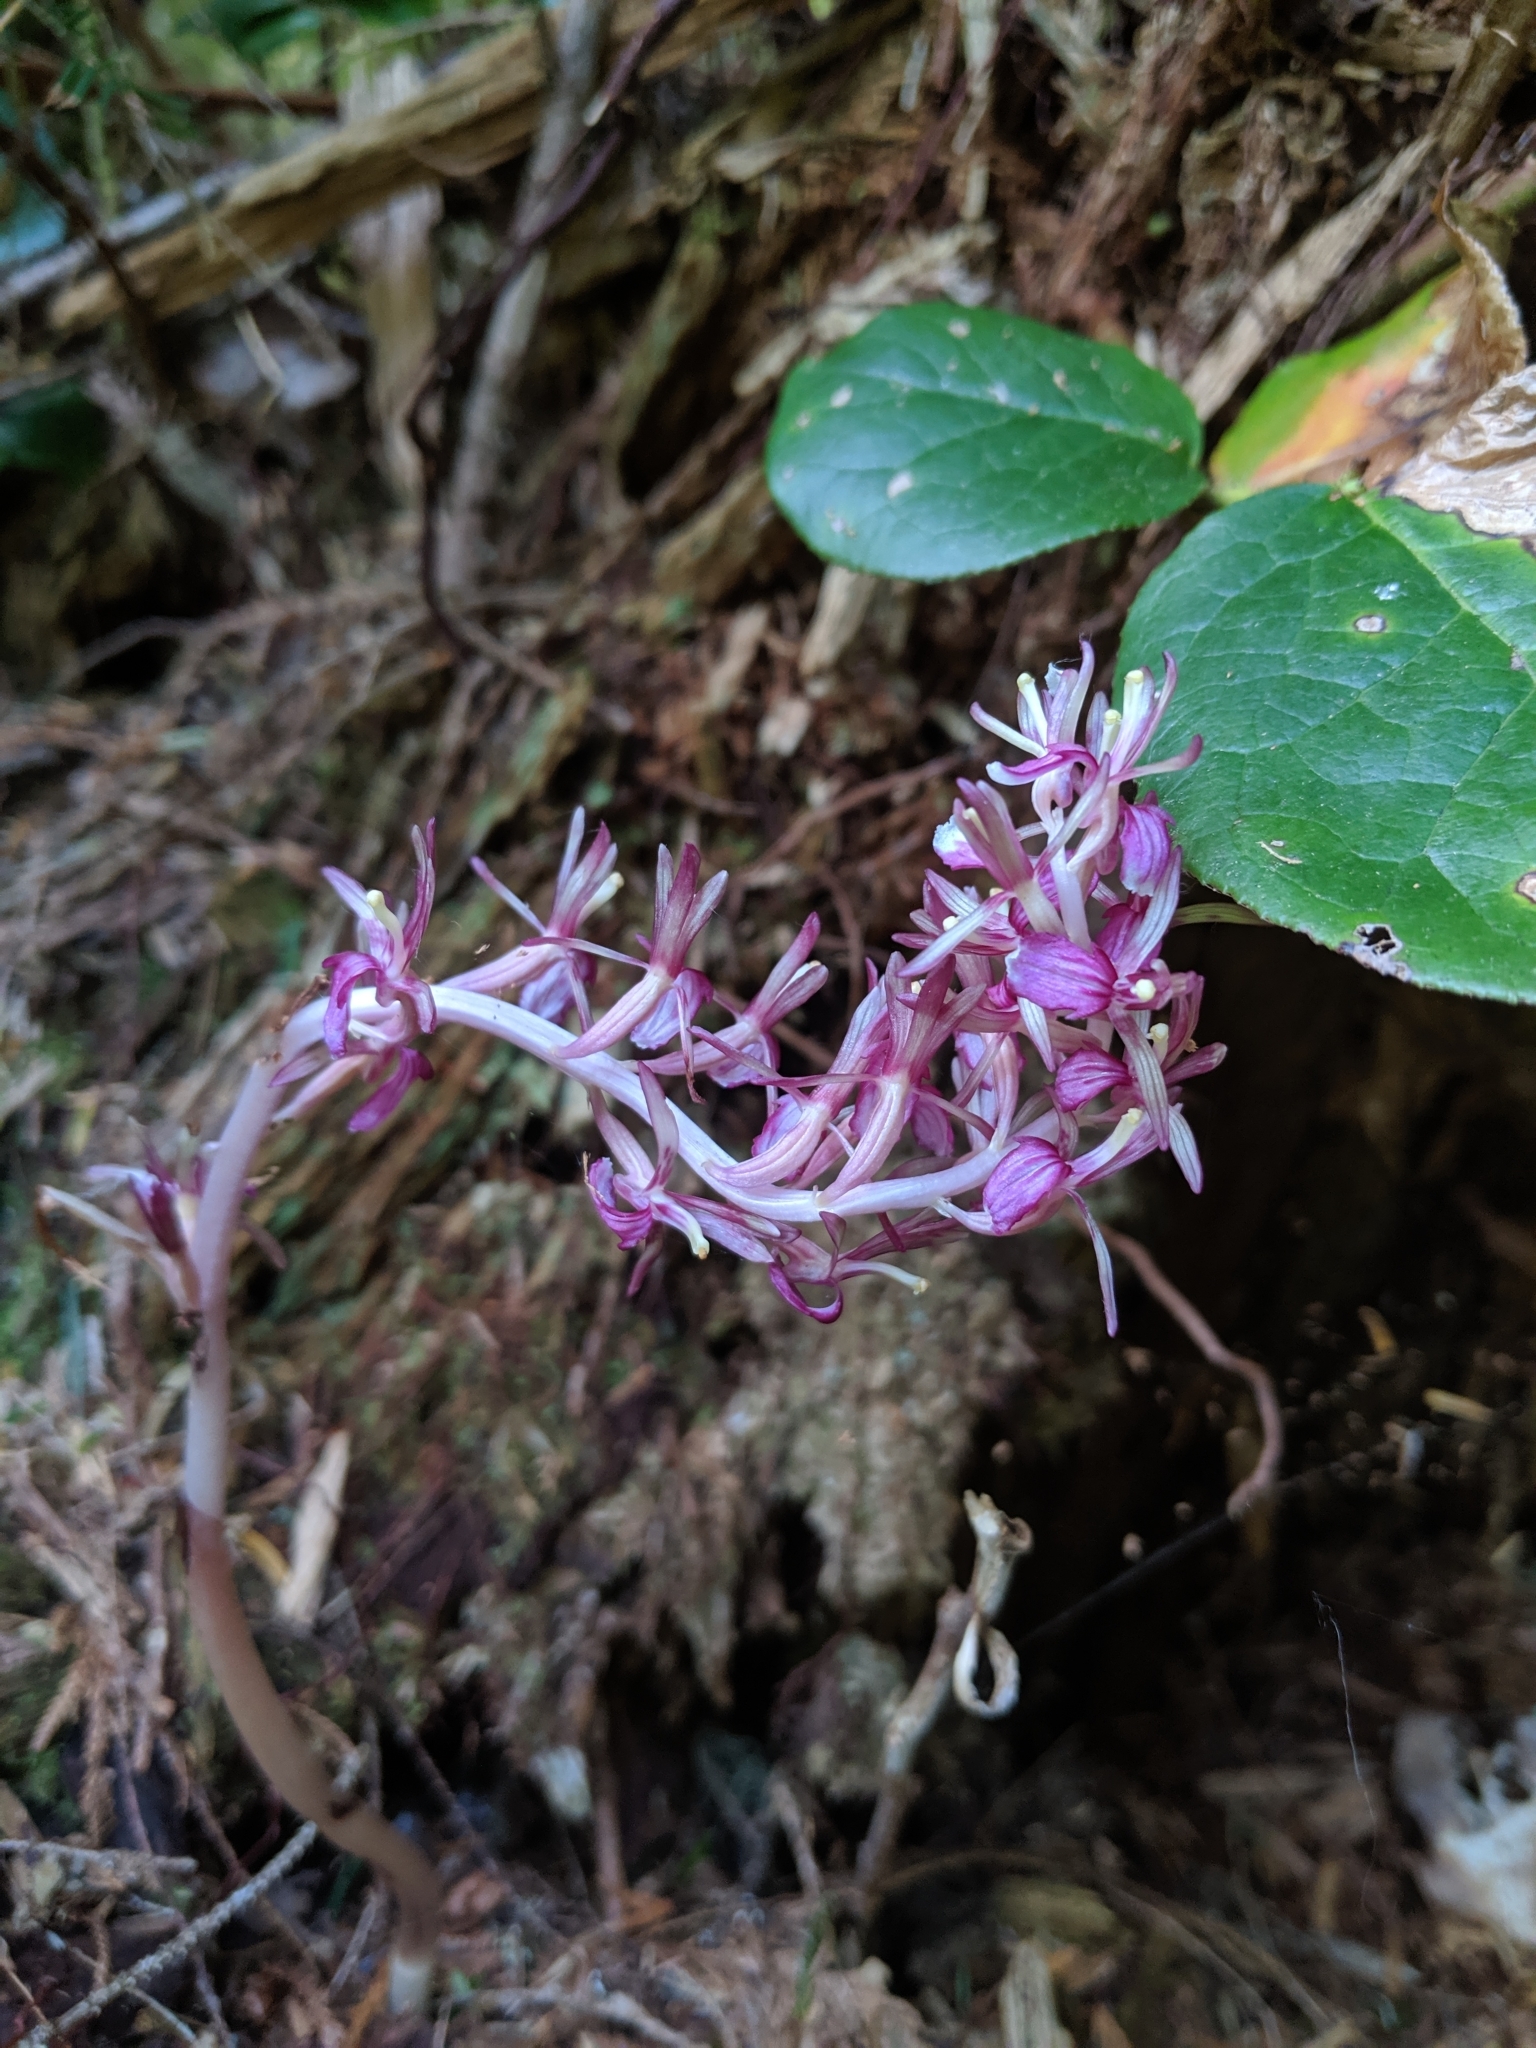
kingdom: Plantae
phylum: Tracheophyta
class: Liliopsida
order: Asparagales
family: Orchidaceae
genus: Corallorhiza
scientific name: Corallorhiza mertensiana
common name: Pacific coralroot
